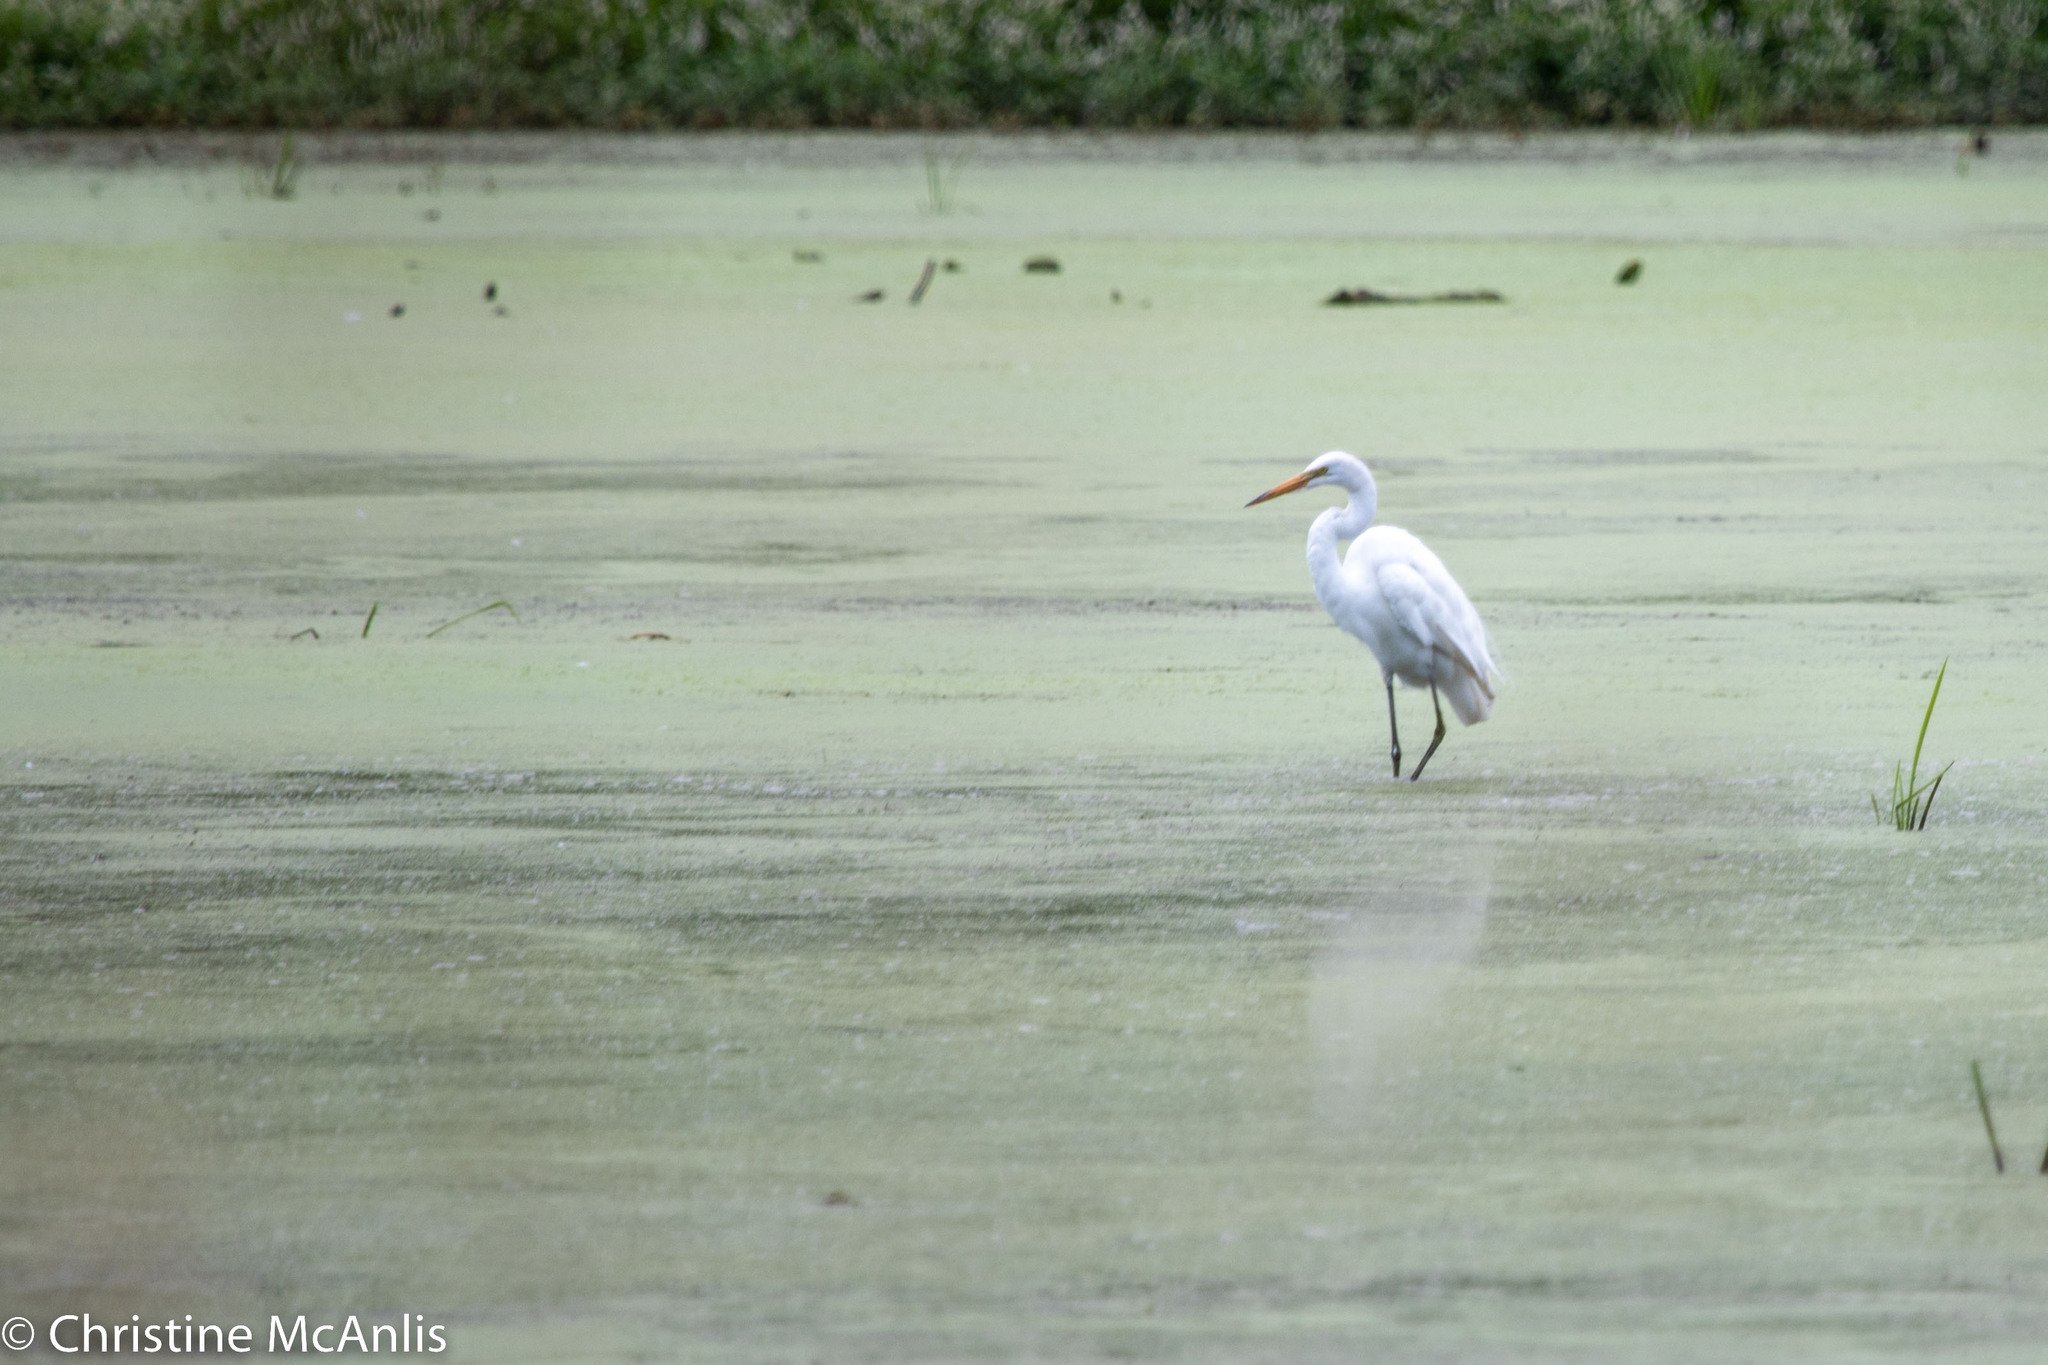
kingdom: Animalia
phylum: Chordata
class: Aves
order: Pelecaniformes
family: Ardeidae
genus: Ardea
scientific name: Ardea alba
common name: Great egret
